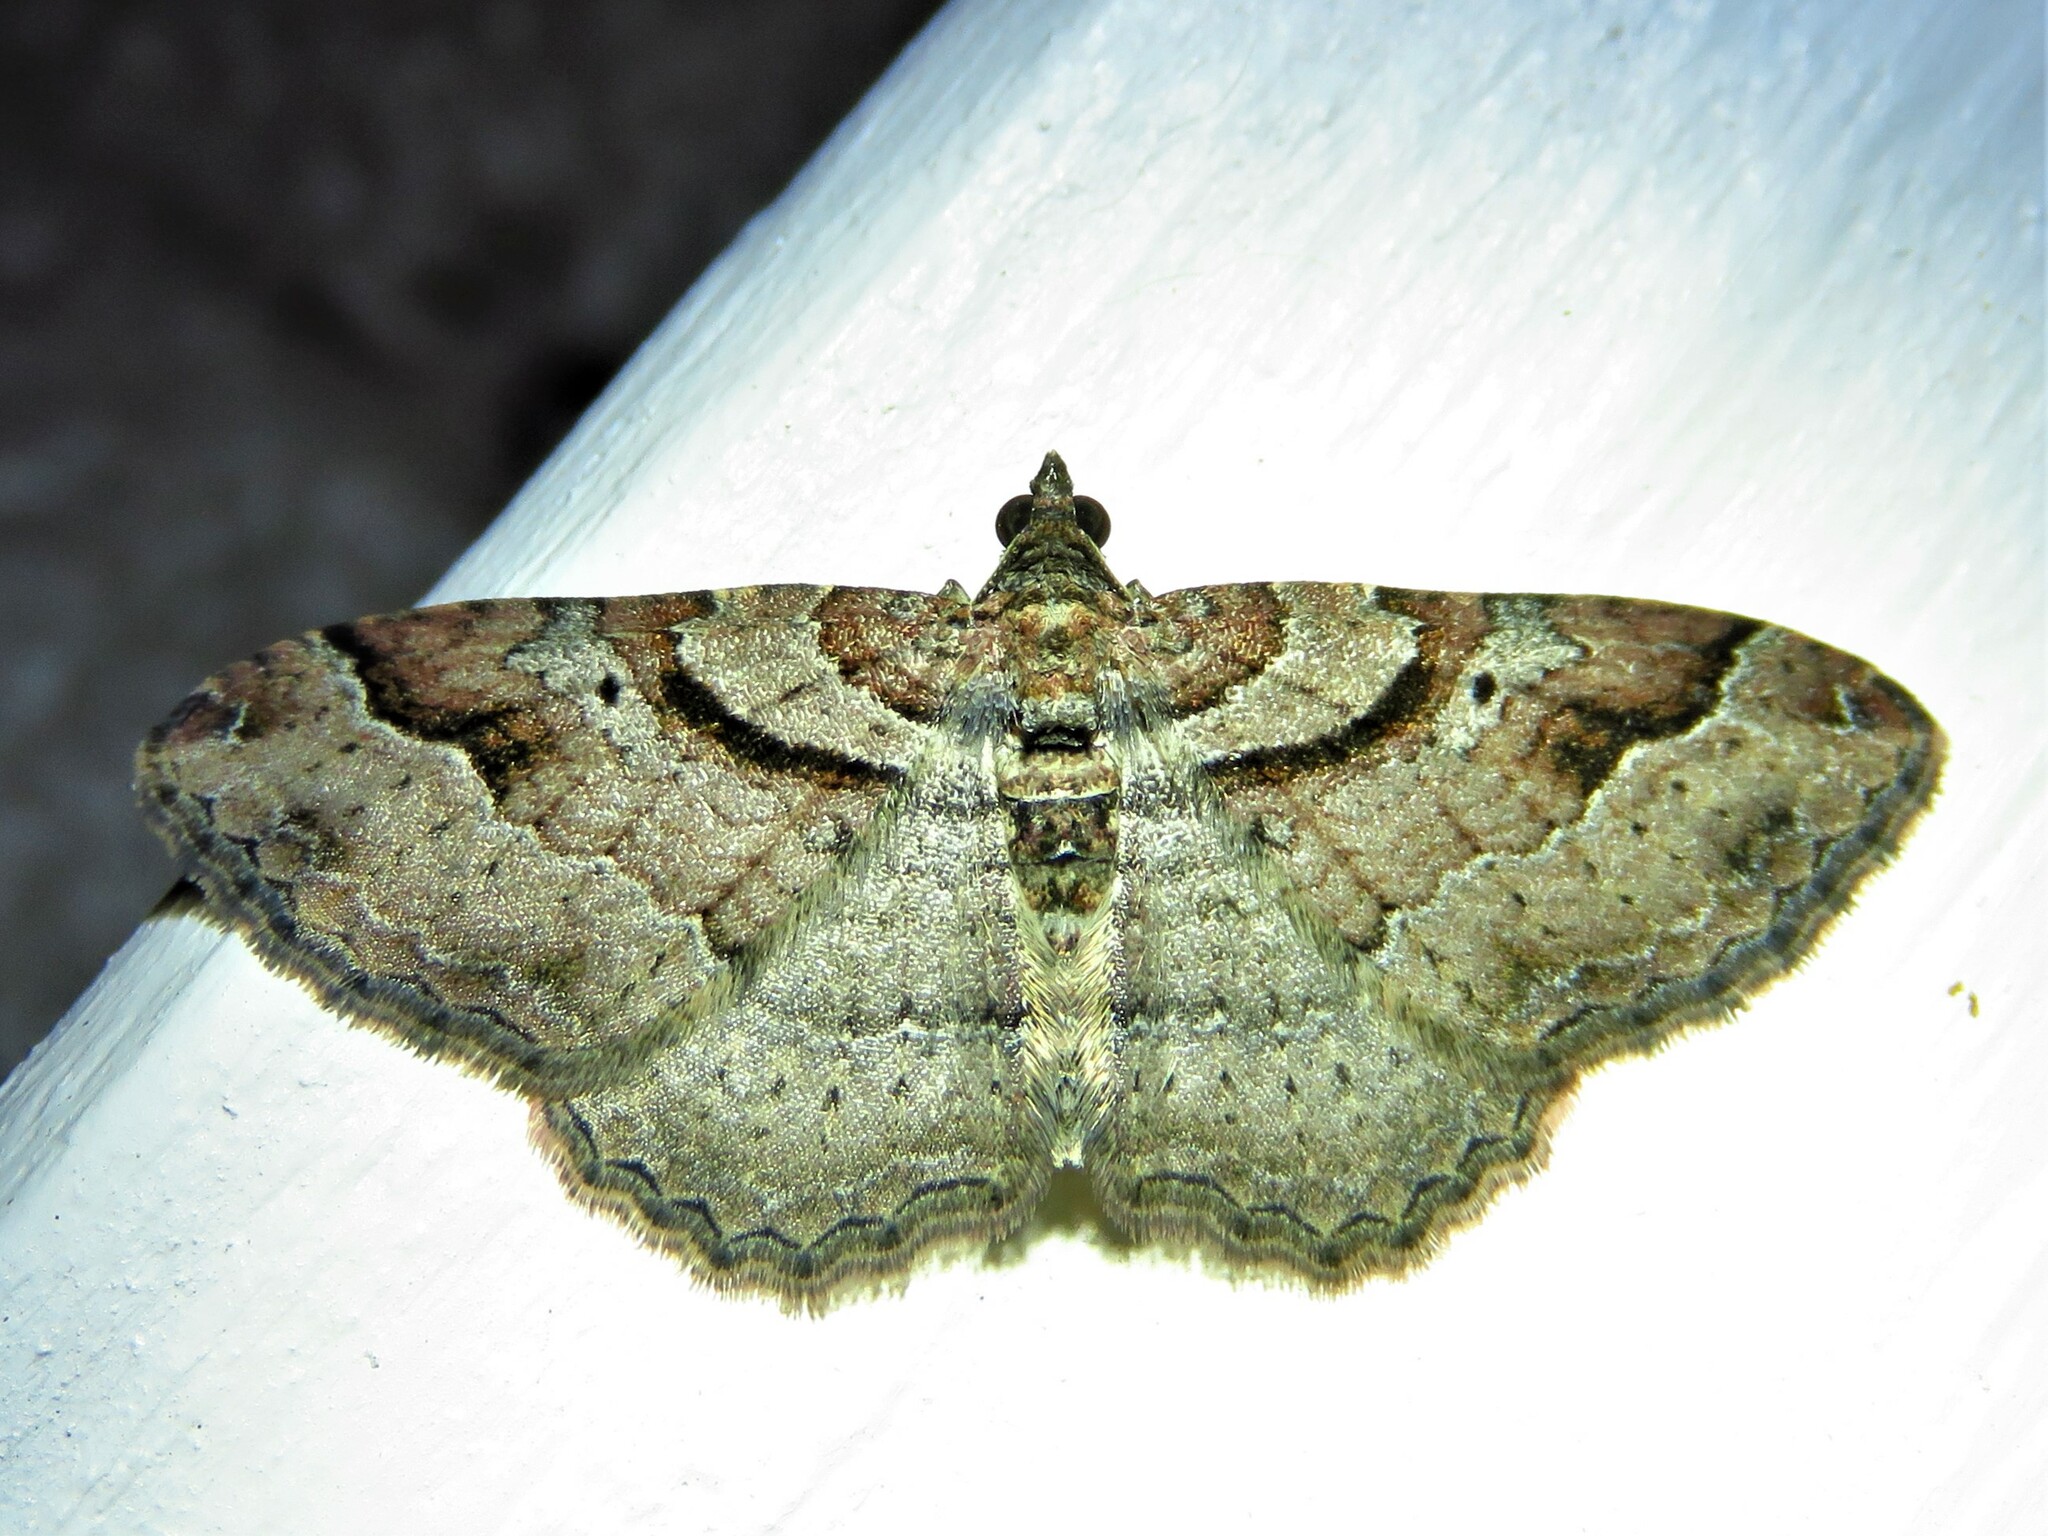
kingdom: Animalia
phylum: Arthropoda
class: Insecta
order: Lepidoptera
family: Geometridae
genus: Costaconvexa
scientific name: Costaconvexa centrostrigaria
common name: Bent-line carpet
